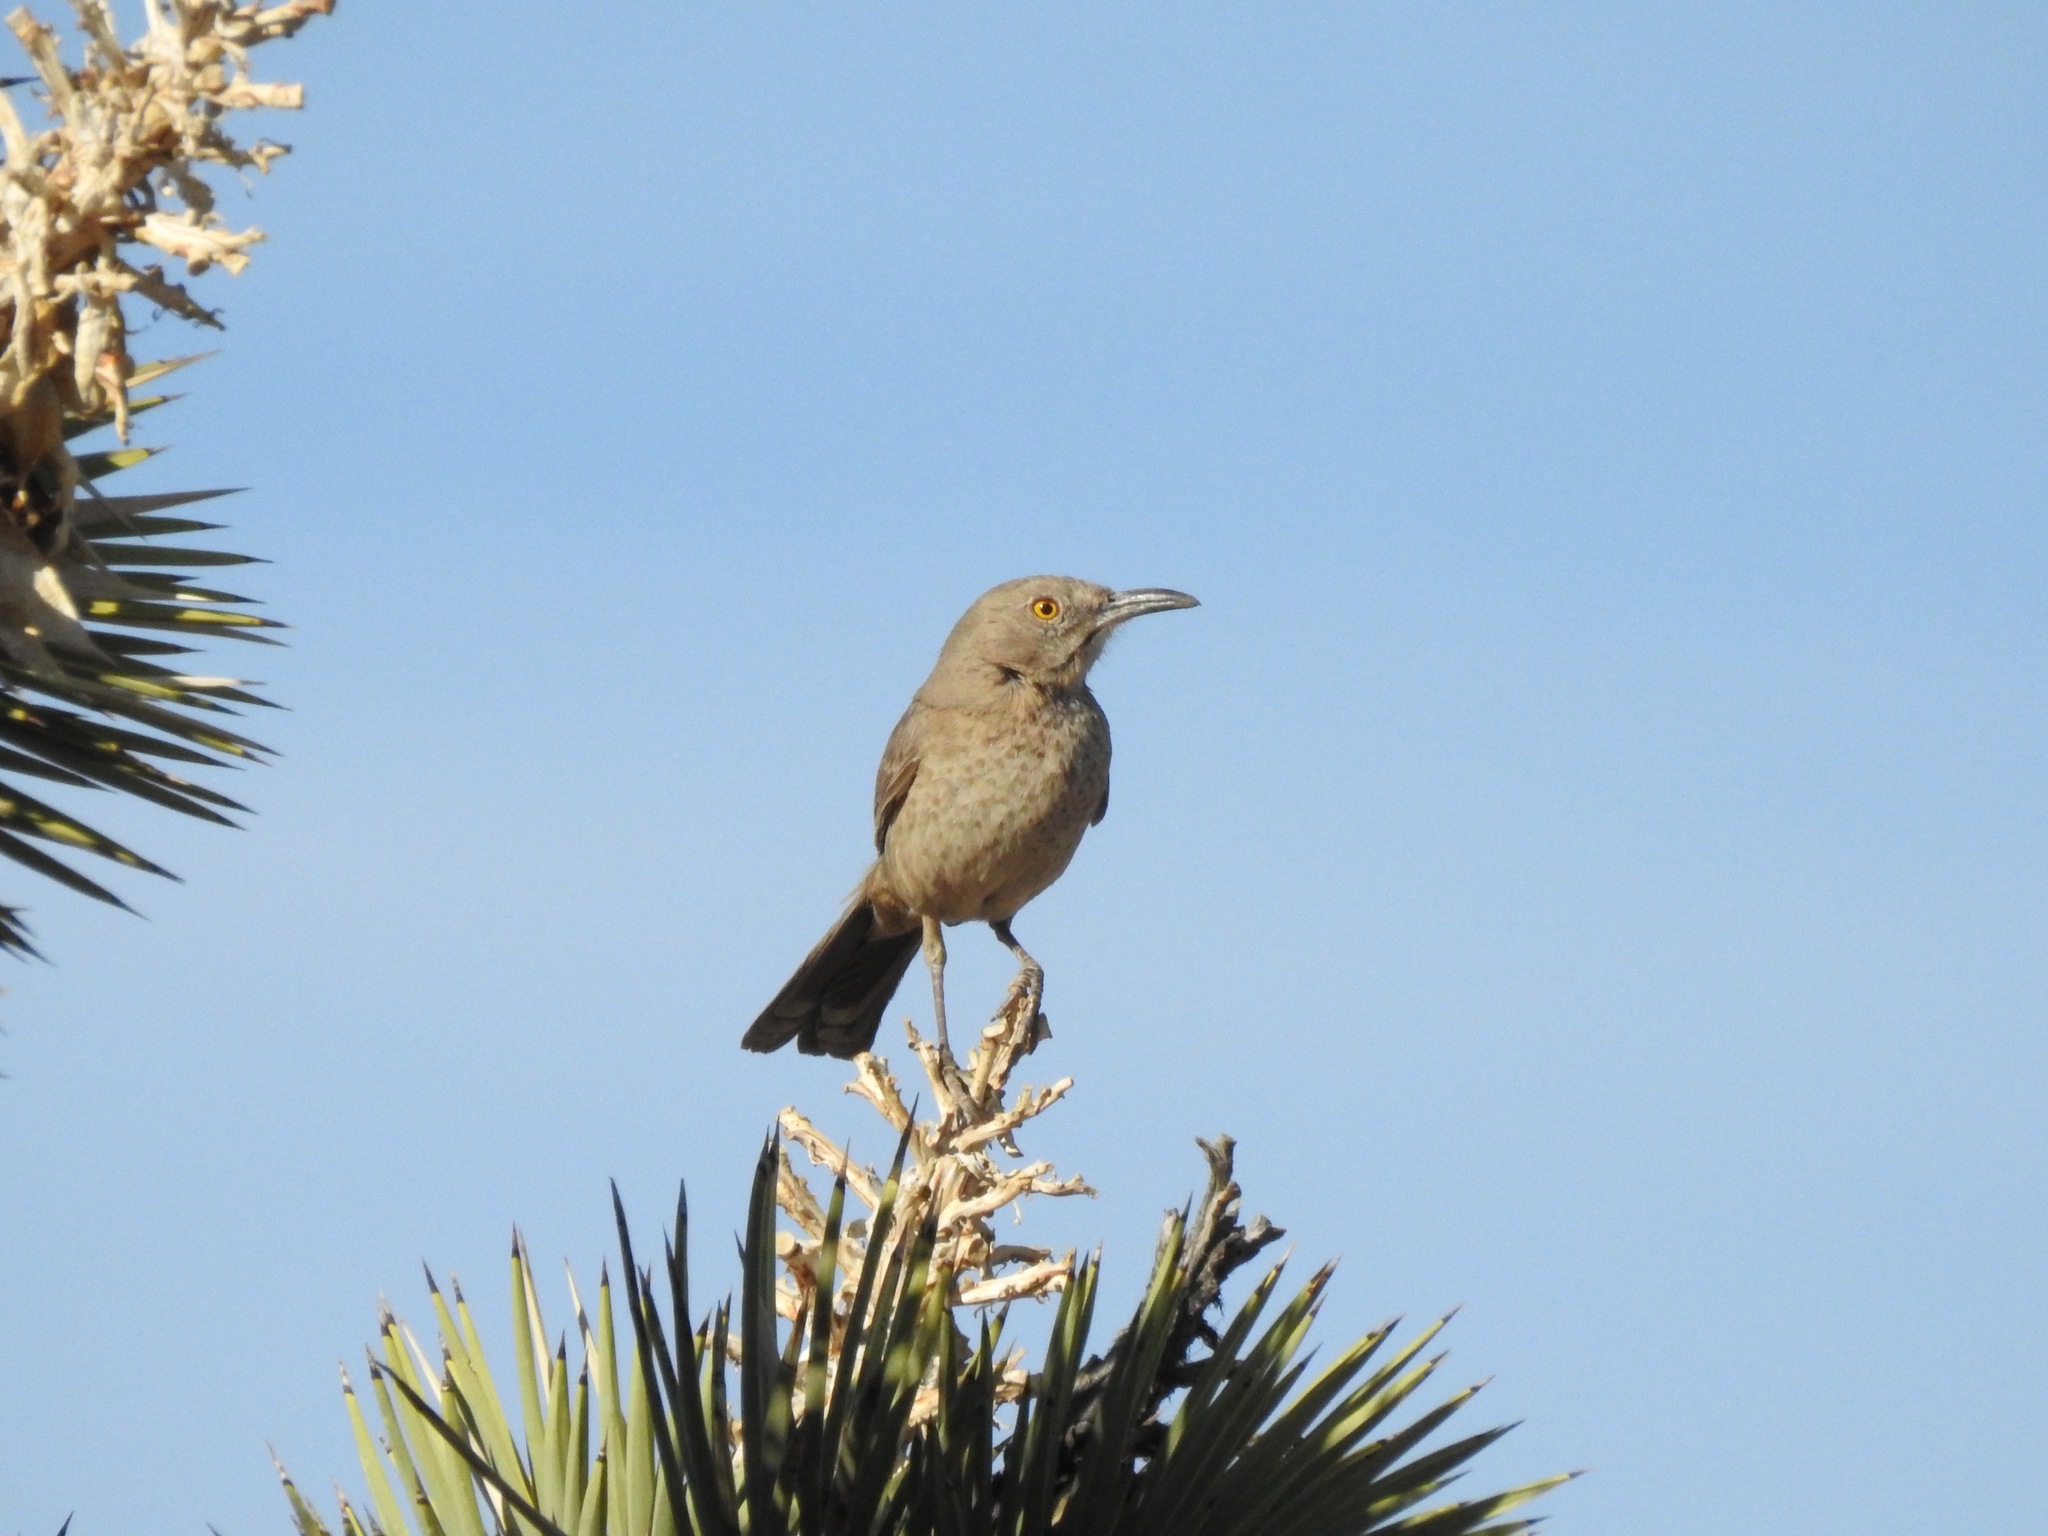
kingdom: Animalia
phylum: Chordata
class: Aves
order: Passeriformes
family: Mimidae
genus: Toxostoma
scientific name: Toxostoma bendirei
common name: Bendire's thrasher
